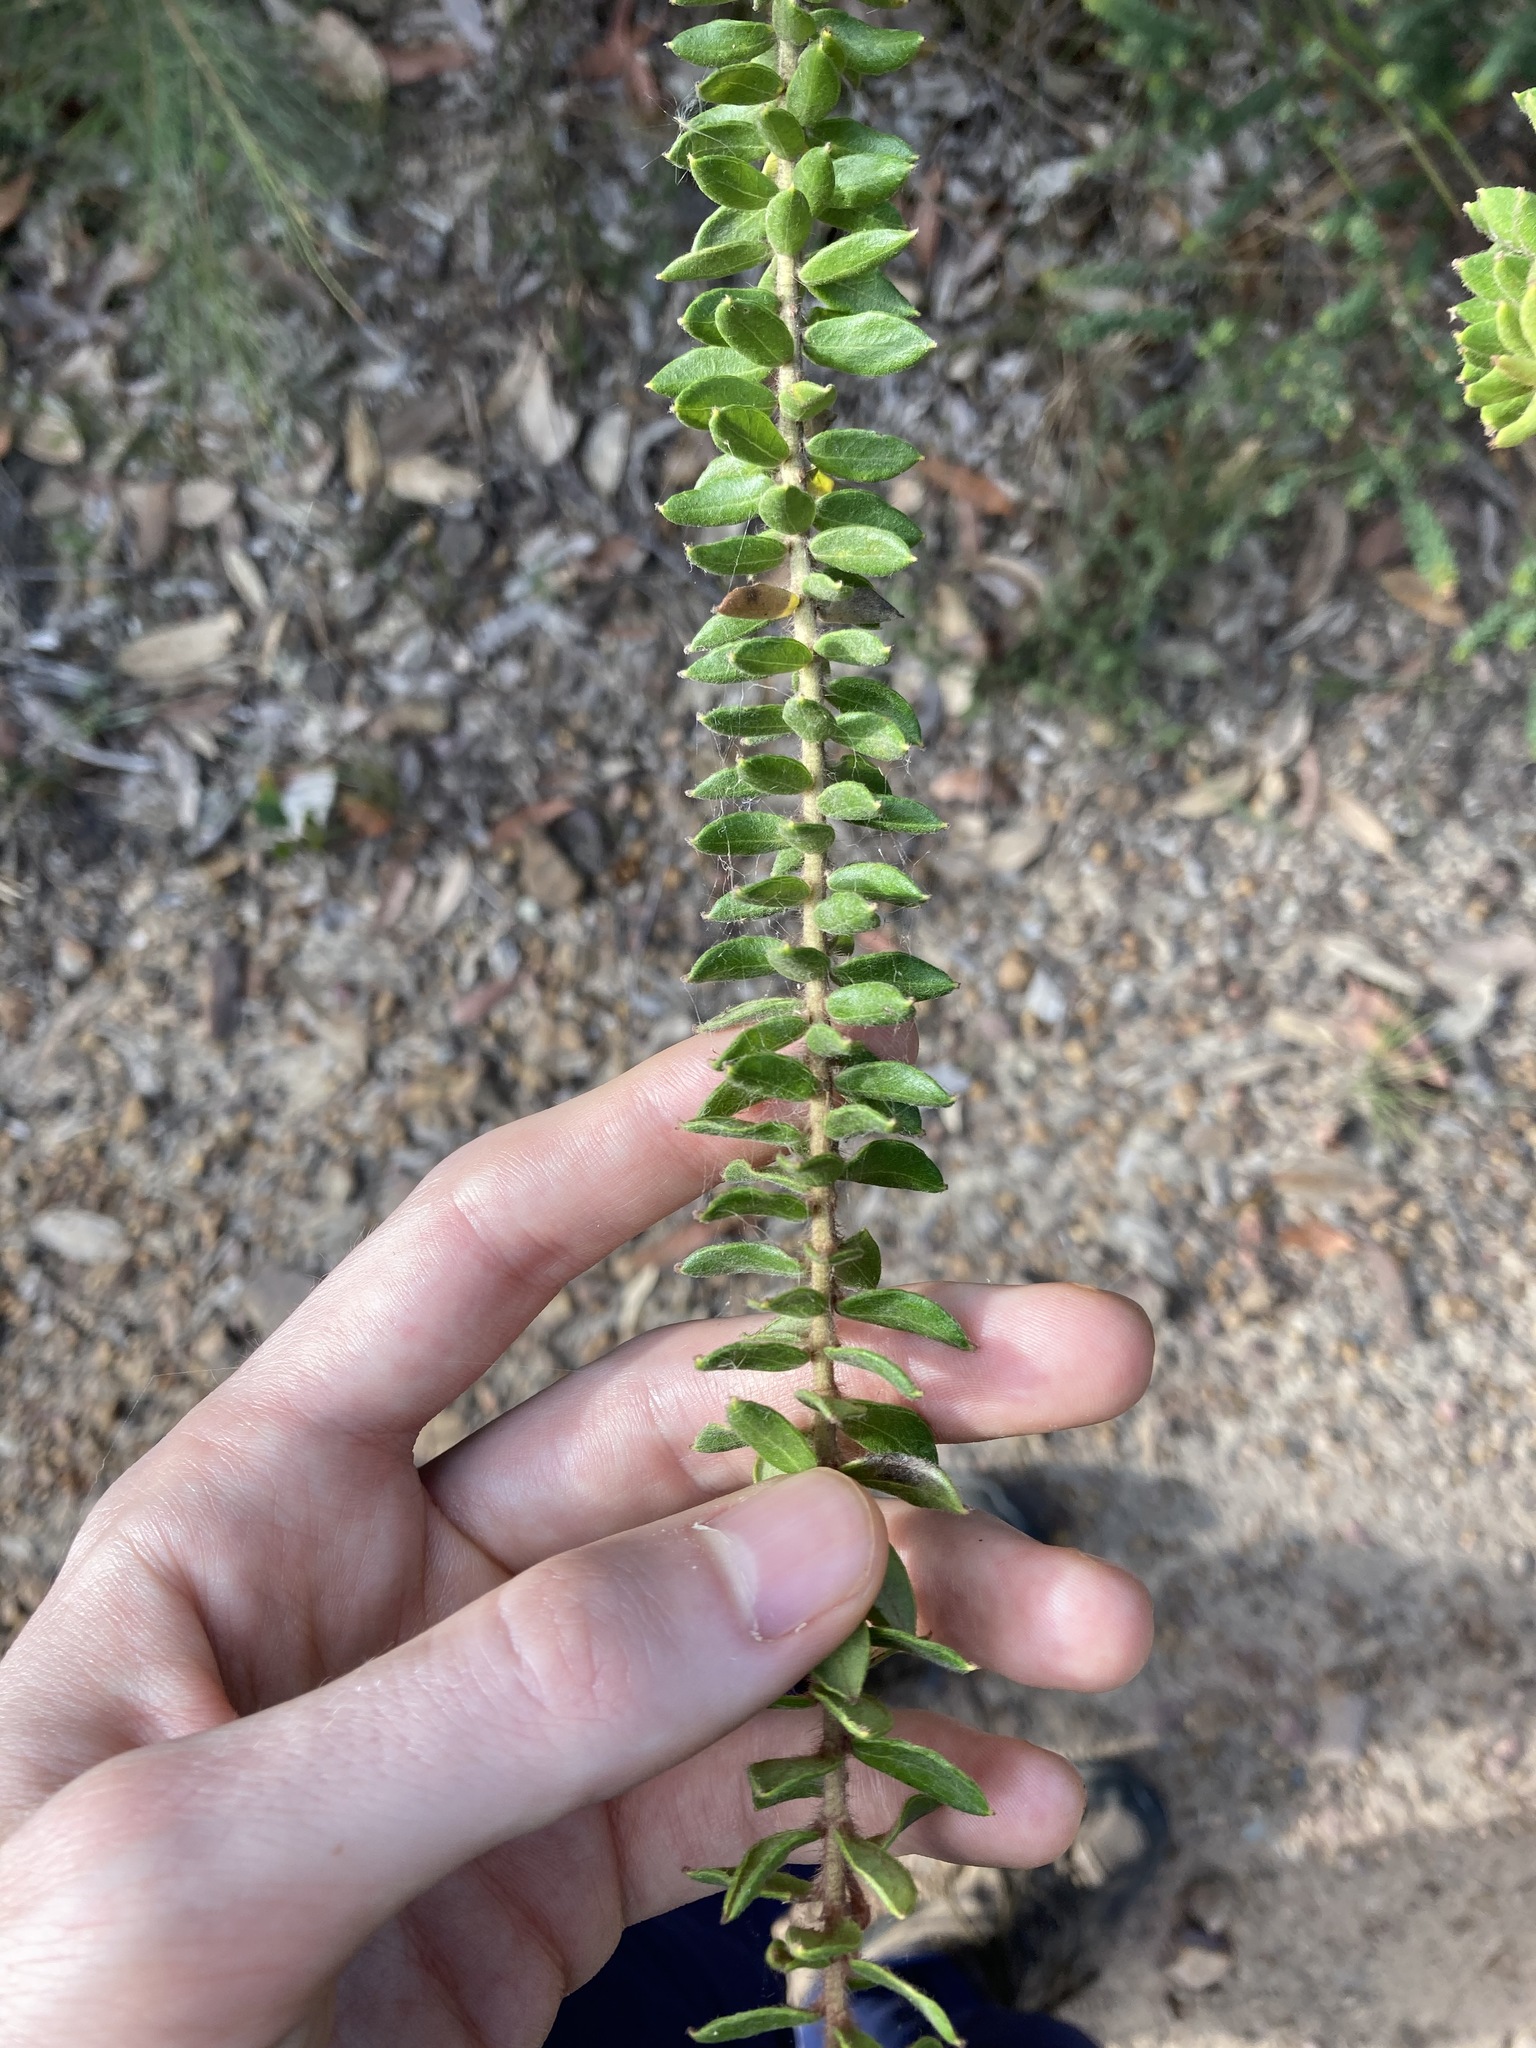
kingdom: Plantae
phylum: Tracheophyta
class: Magnoliopsida
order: Proteales
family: Proteaceae
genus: Grevillea
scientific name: Grevillea buxifolia
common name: Grey spiderflower
